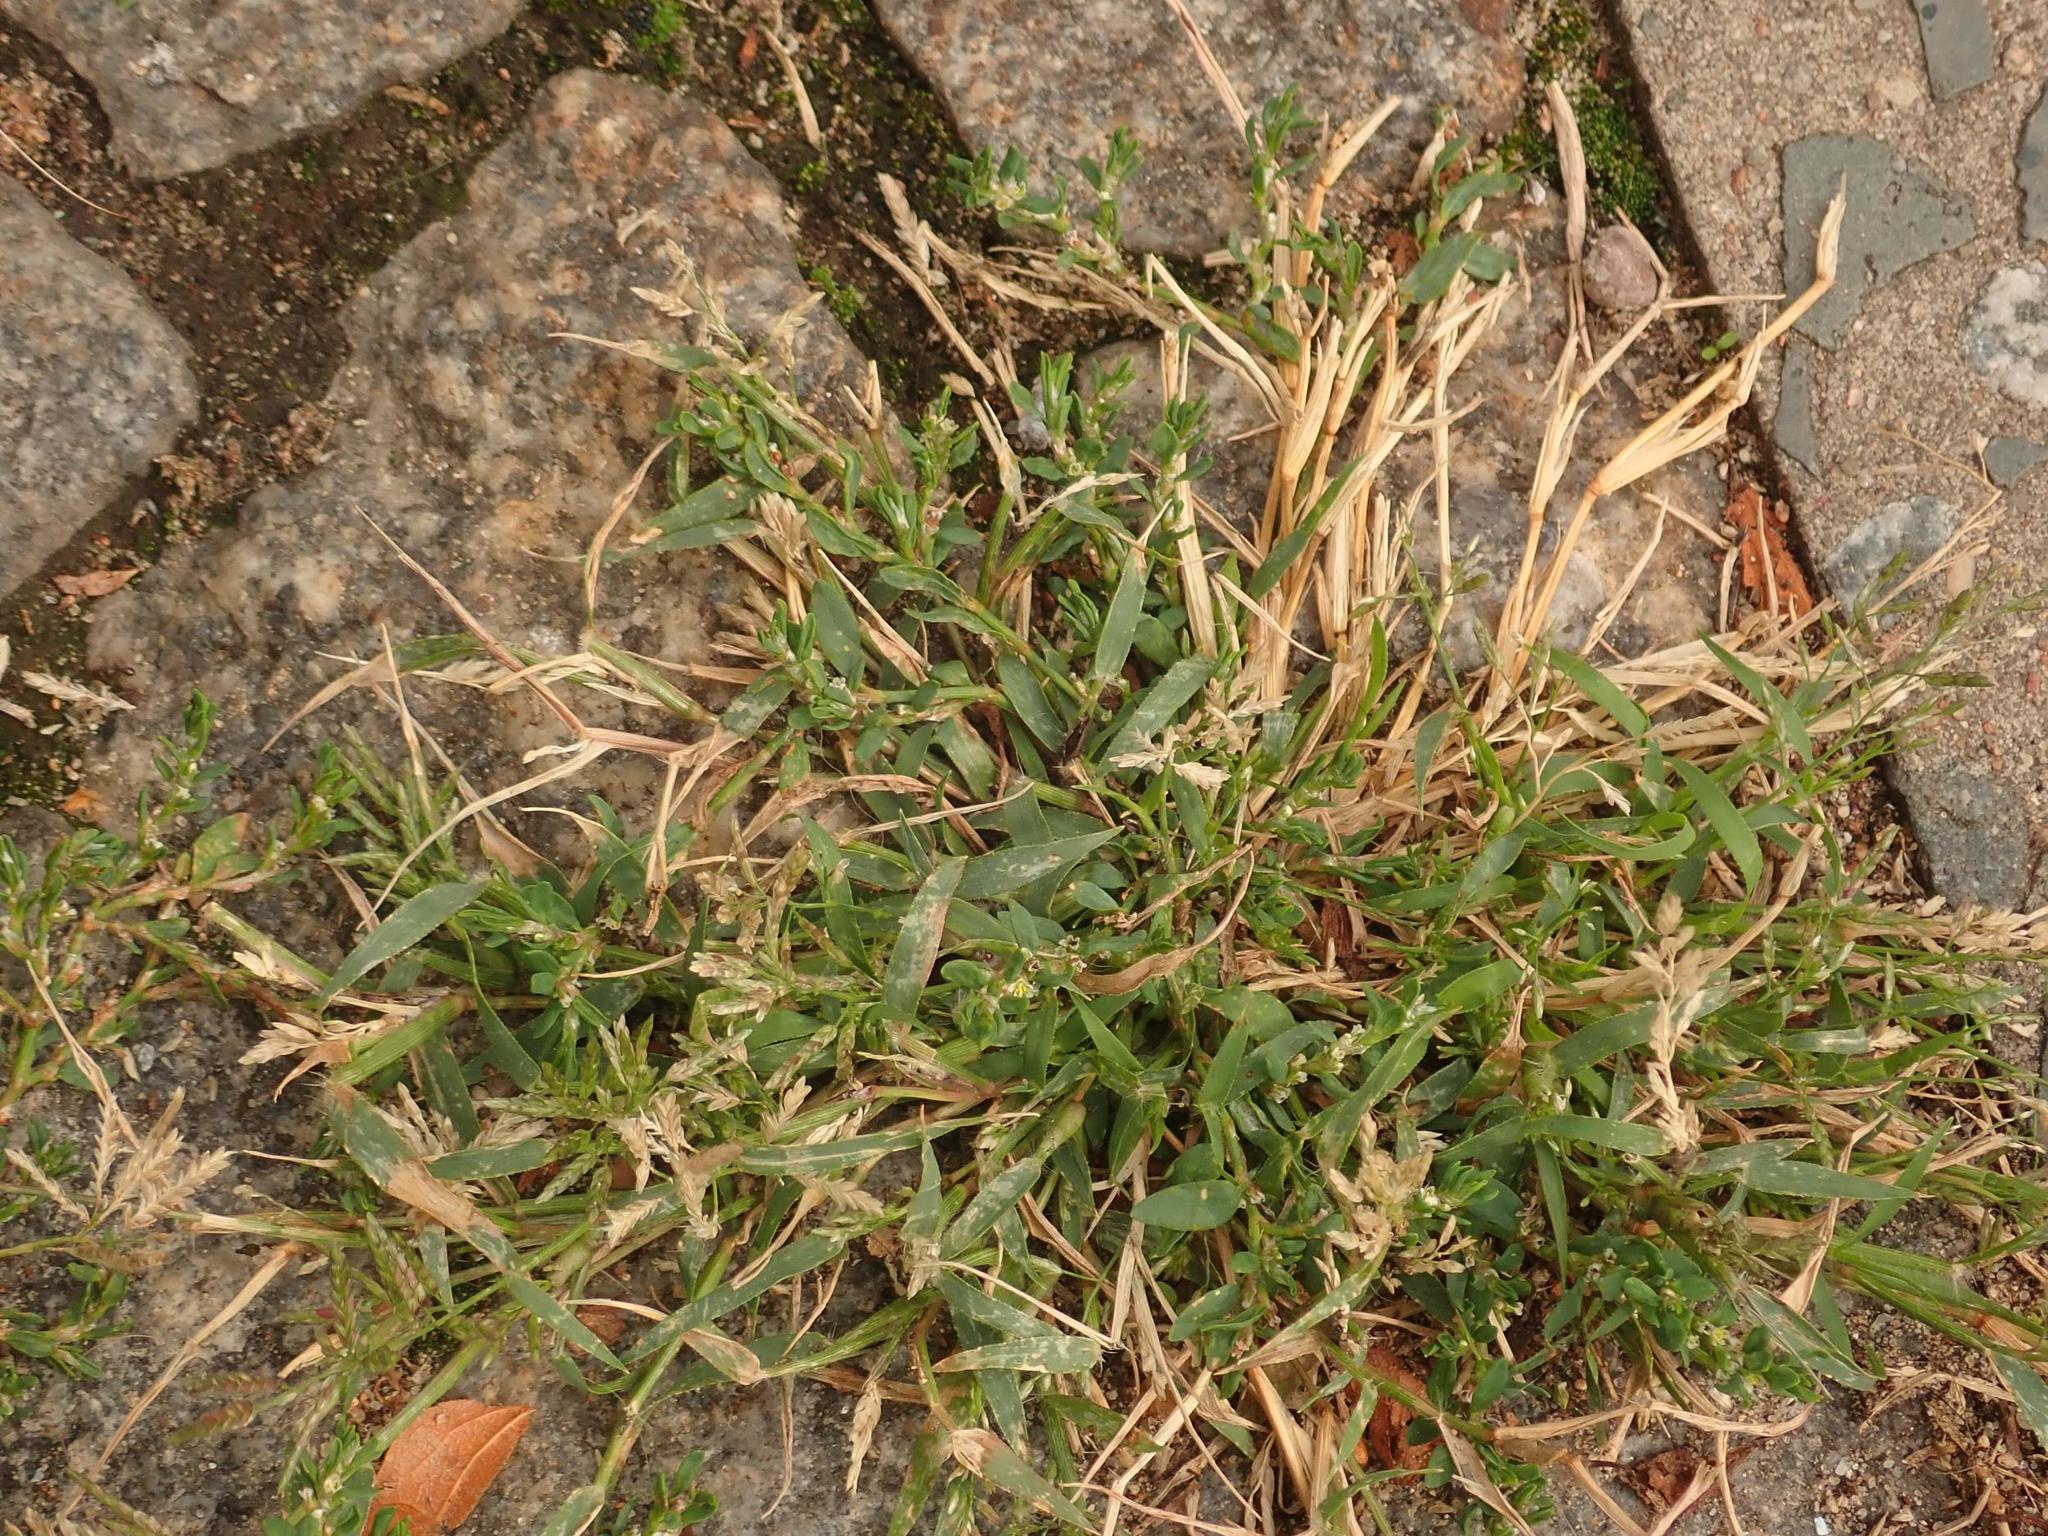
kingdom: Plantae
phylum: Tracheophyta
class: Liliopsida
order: Poales
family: Poaceae
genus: Poa
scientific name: Poa annua
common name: Annual bluegrass
